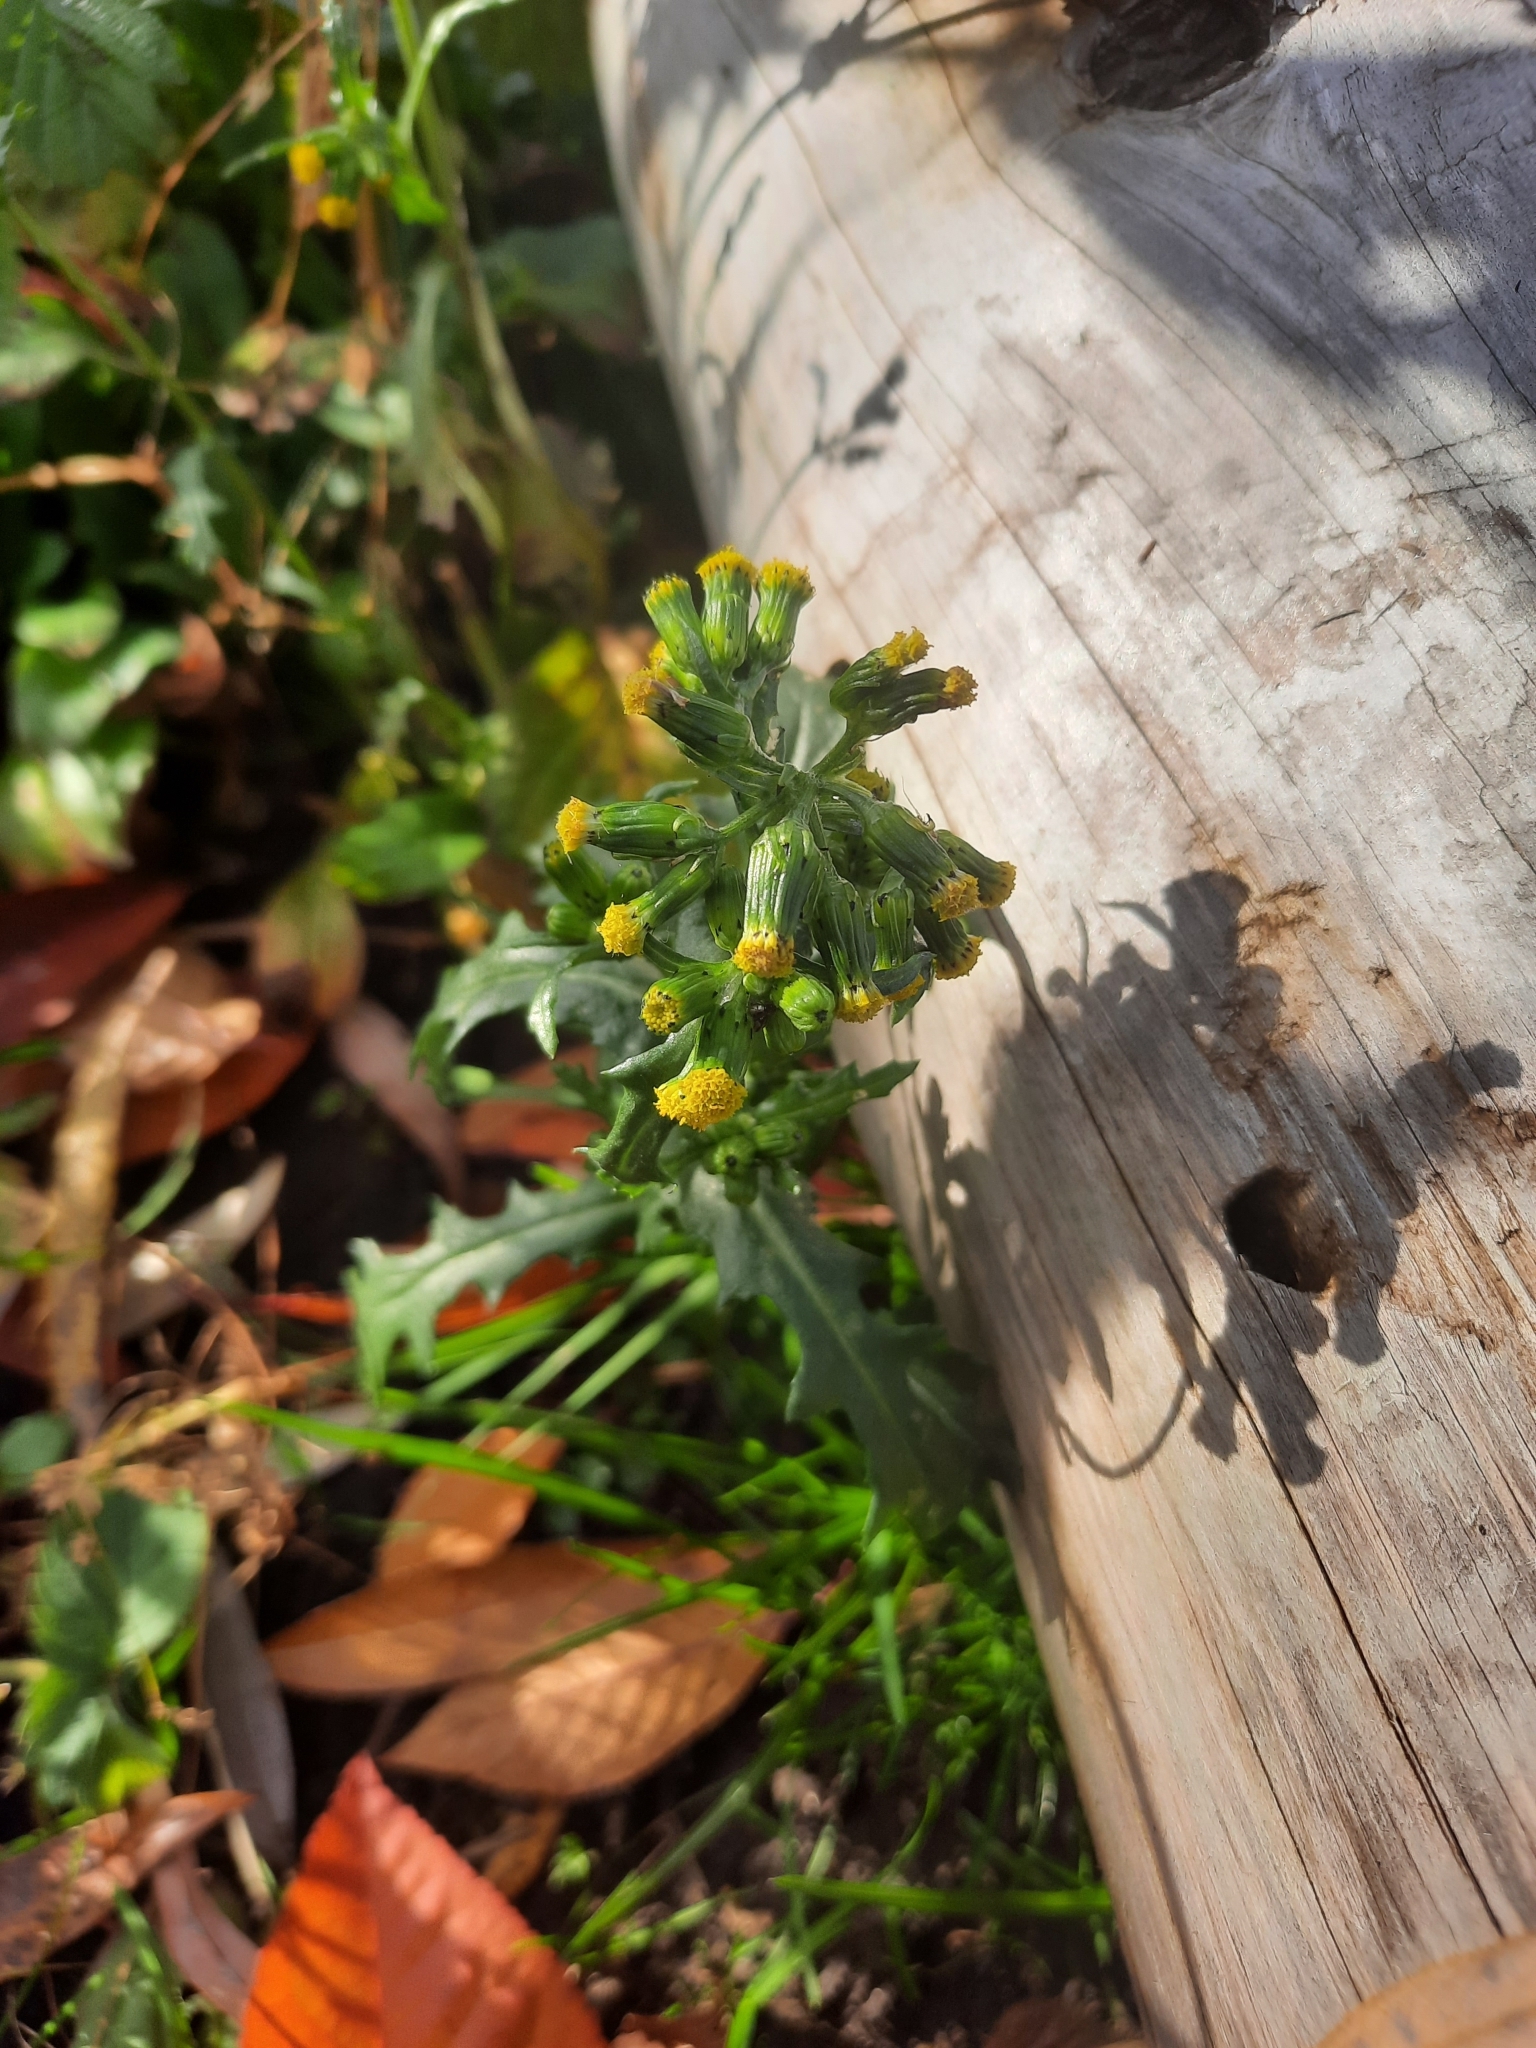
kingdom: Plantae
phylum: Tracheophyta
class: Magnoliopsida
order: Asterales
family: Asteraceae
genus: Senecio
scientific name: Senecio vulgaris
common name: Old-man-in-the-spring
